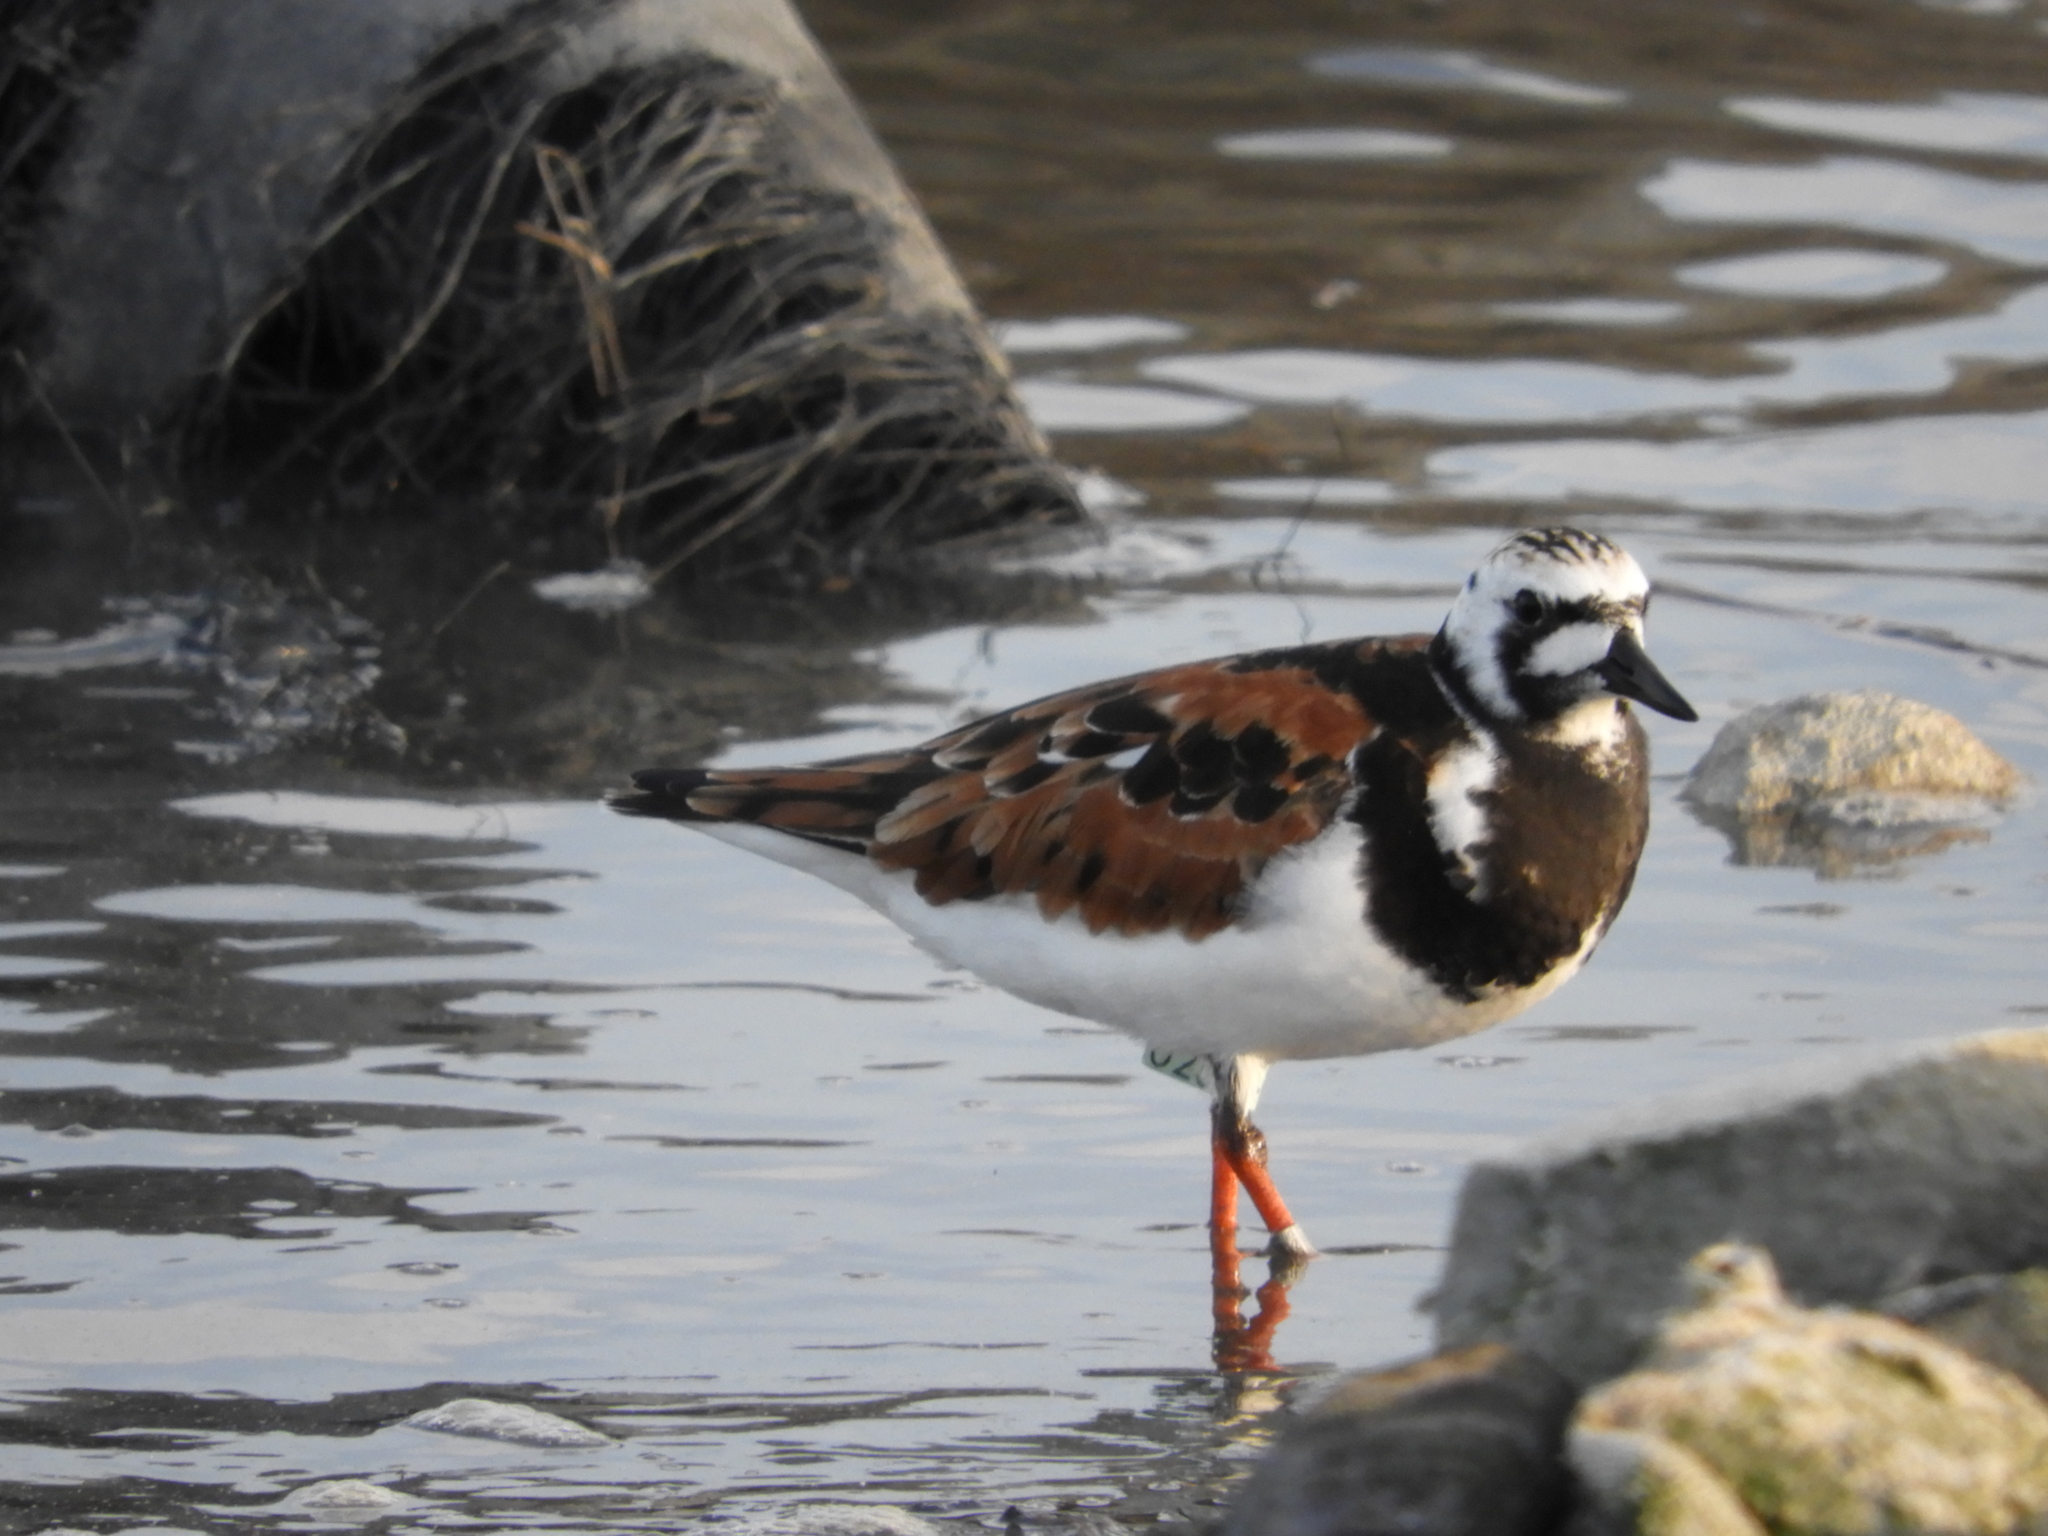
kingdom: Animalia
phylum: Chordata
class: Aves
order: Charadriiformes
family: Scolopacidae
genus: Arenaria
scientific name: Arenaria interpres
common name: Ruddy turnstone
